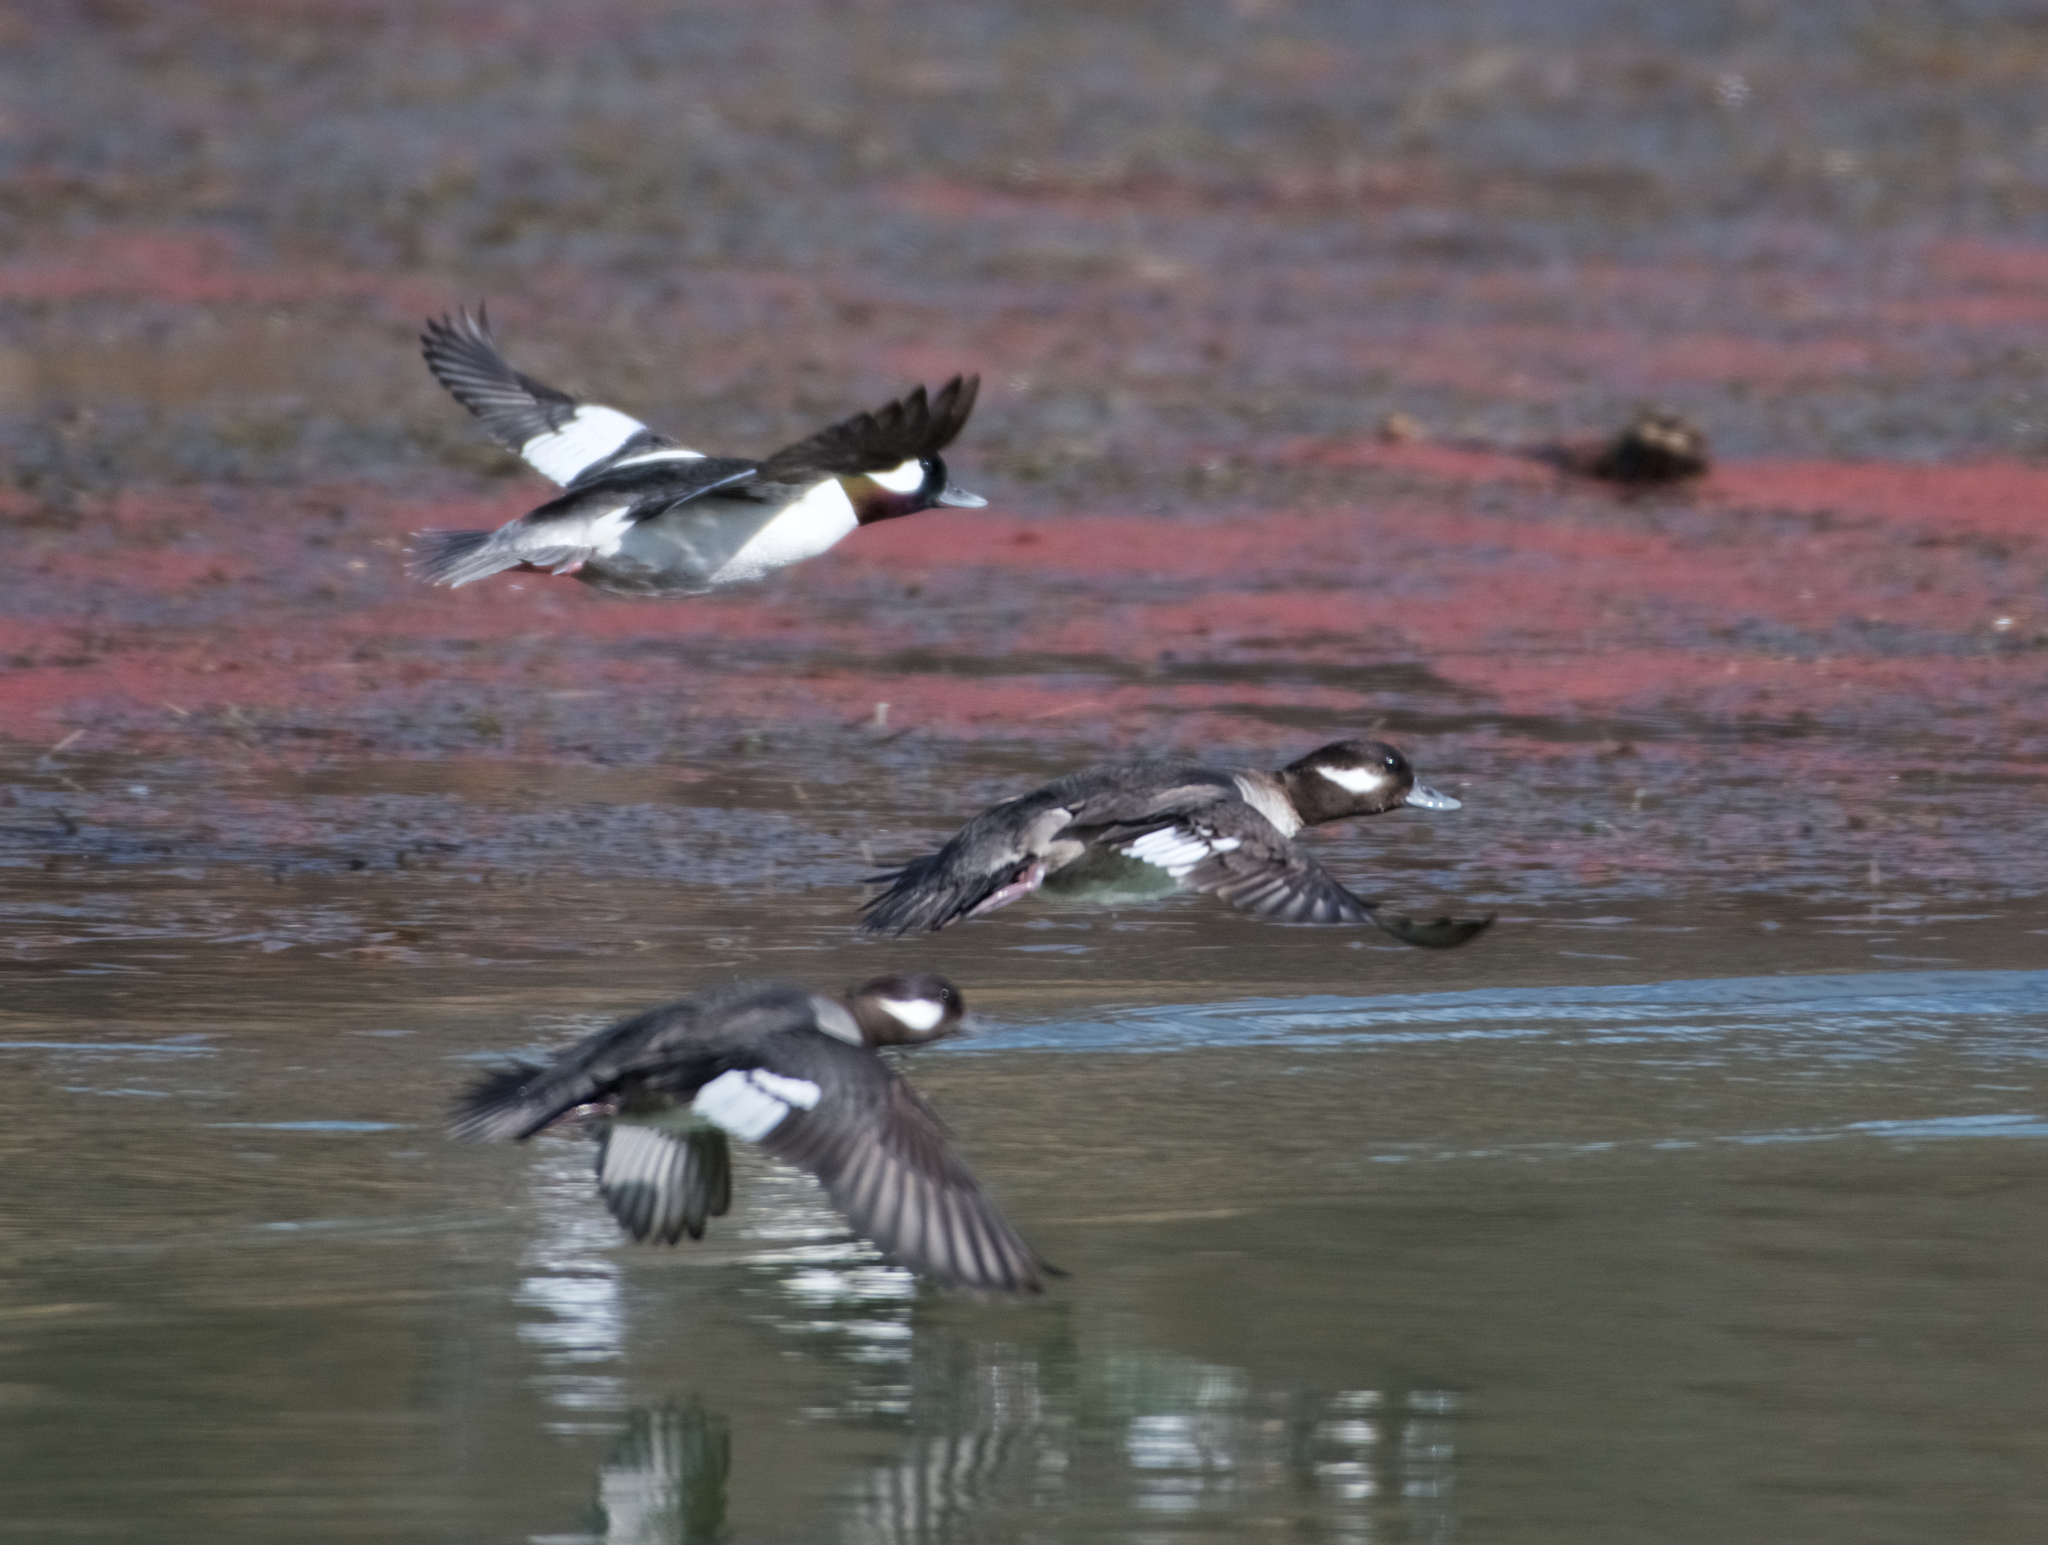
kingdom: Animalia
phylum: Chordata
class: Aves
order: Anseriformes
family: Anatidae
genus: Bucephala
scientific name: Bucephala albeola
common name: Bufflehead
